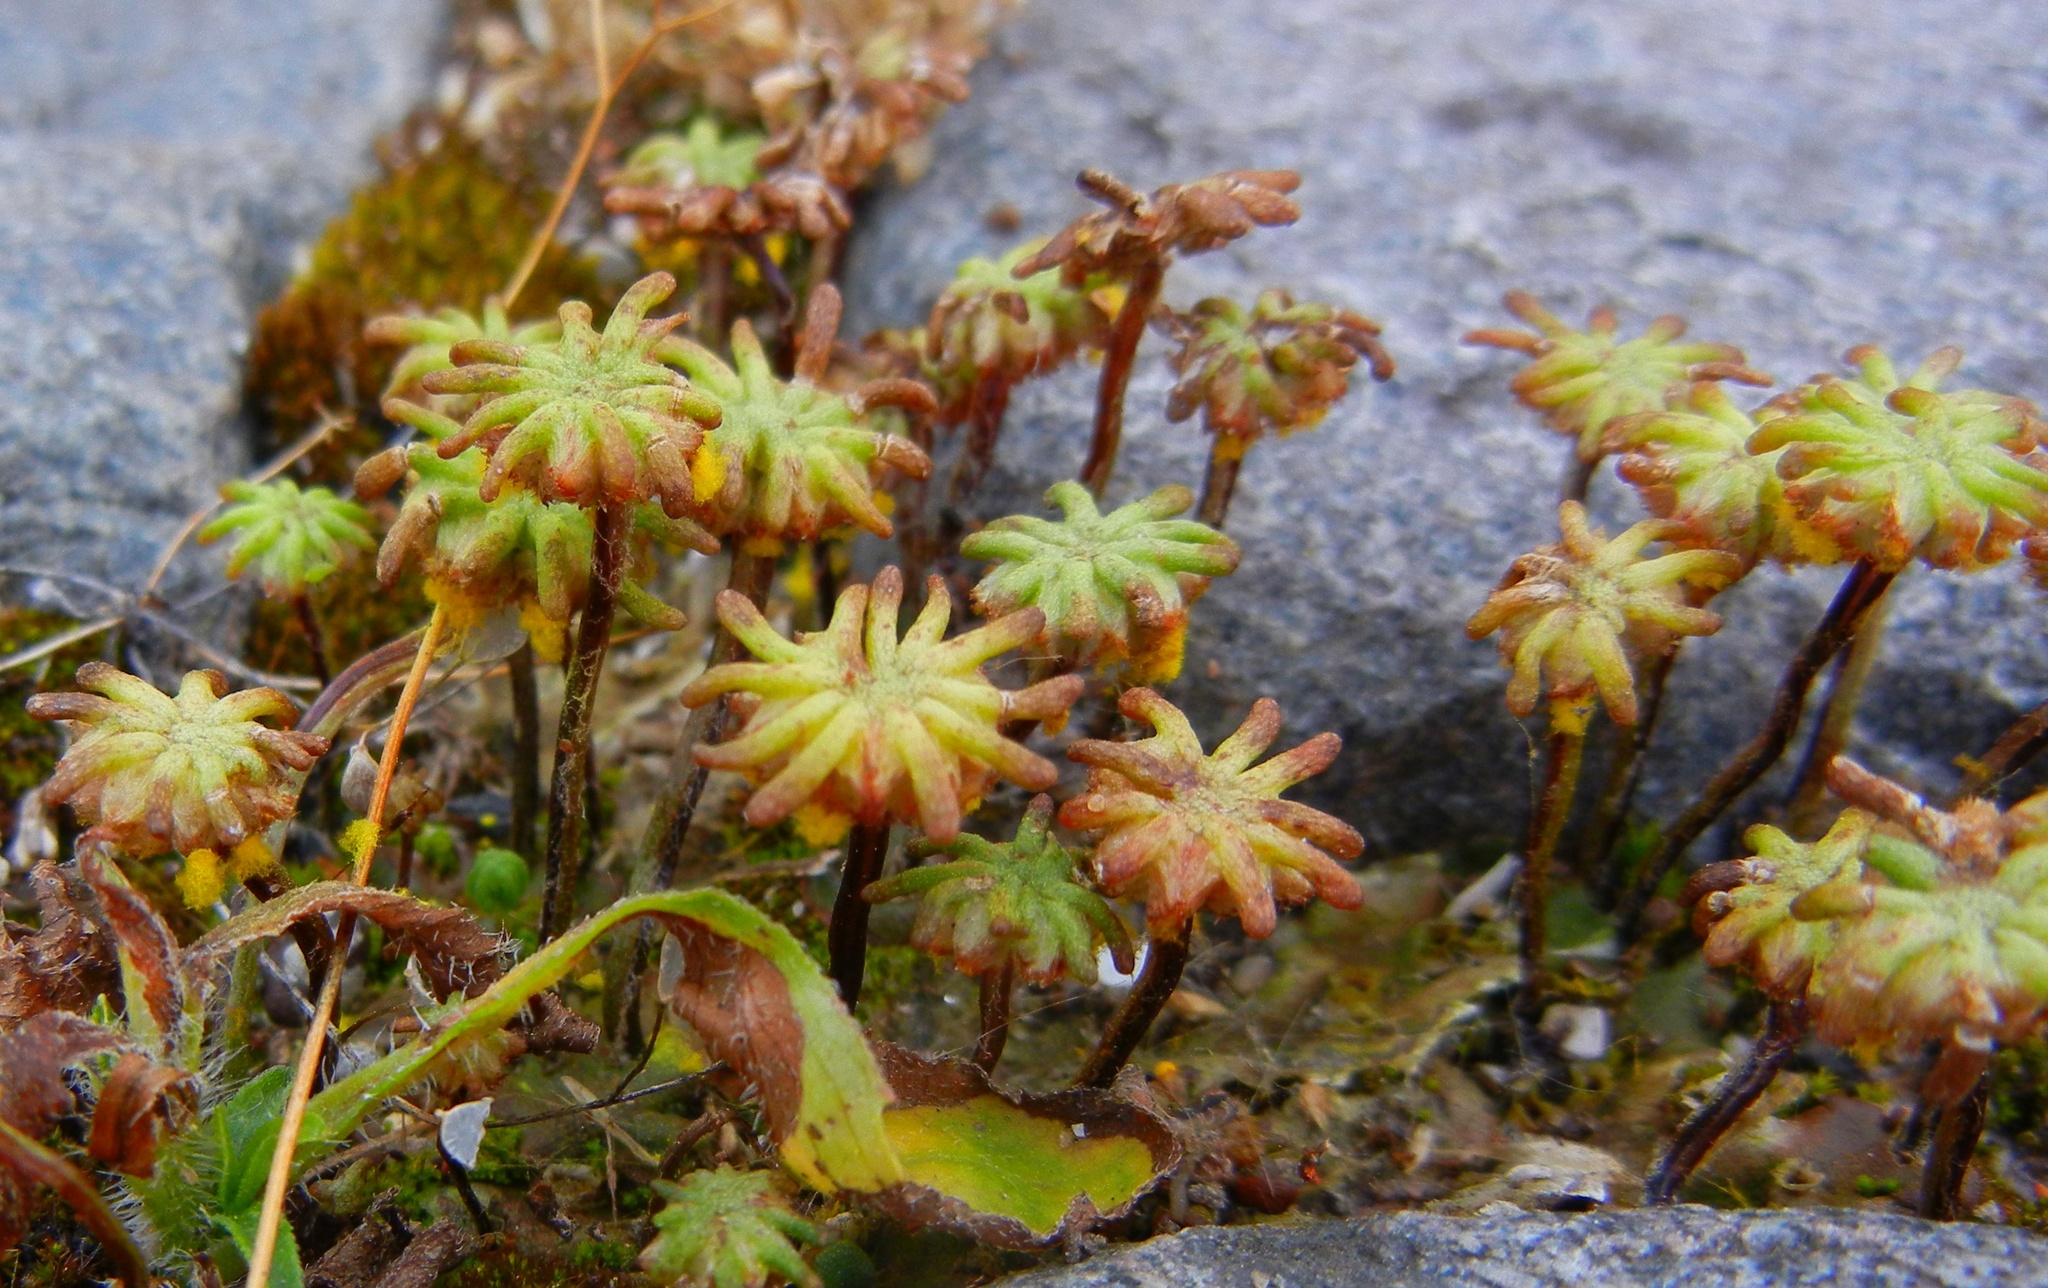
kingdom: Plantae
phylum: Marchantiophyta
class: Marchantiopsida
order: Marchantiales
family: Marchantiaceae
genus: Marchantia
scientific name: Marchantia polymorpha
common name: Common liverwort
